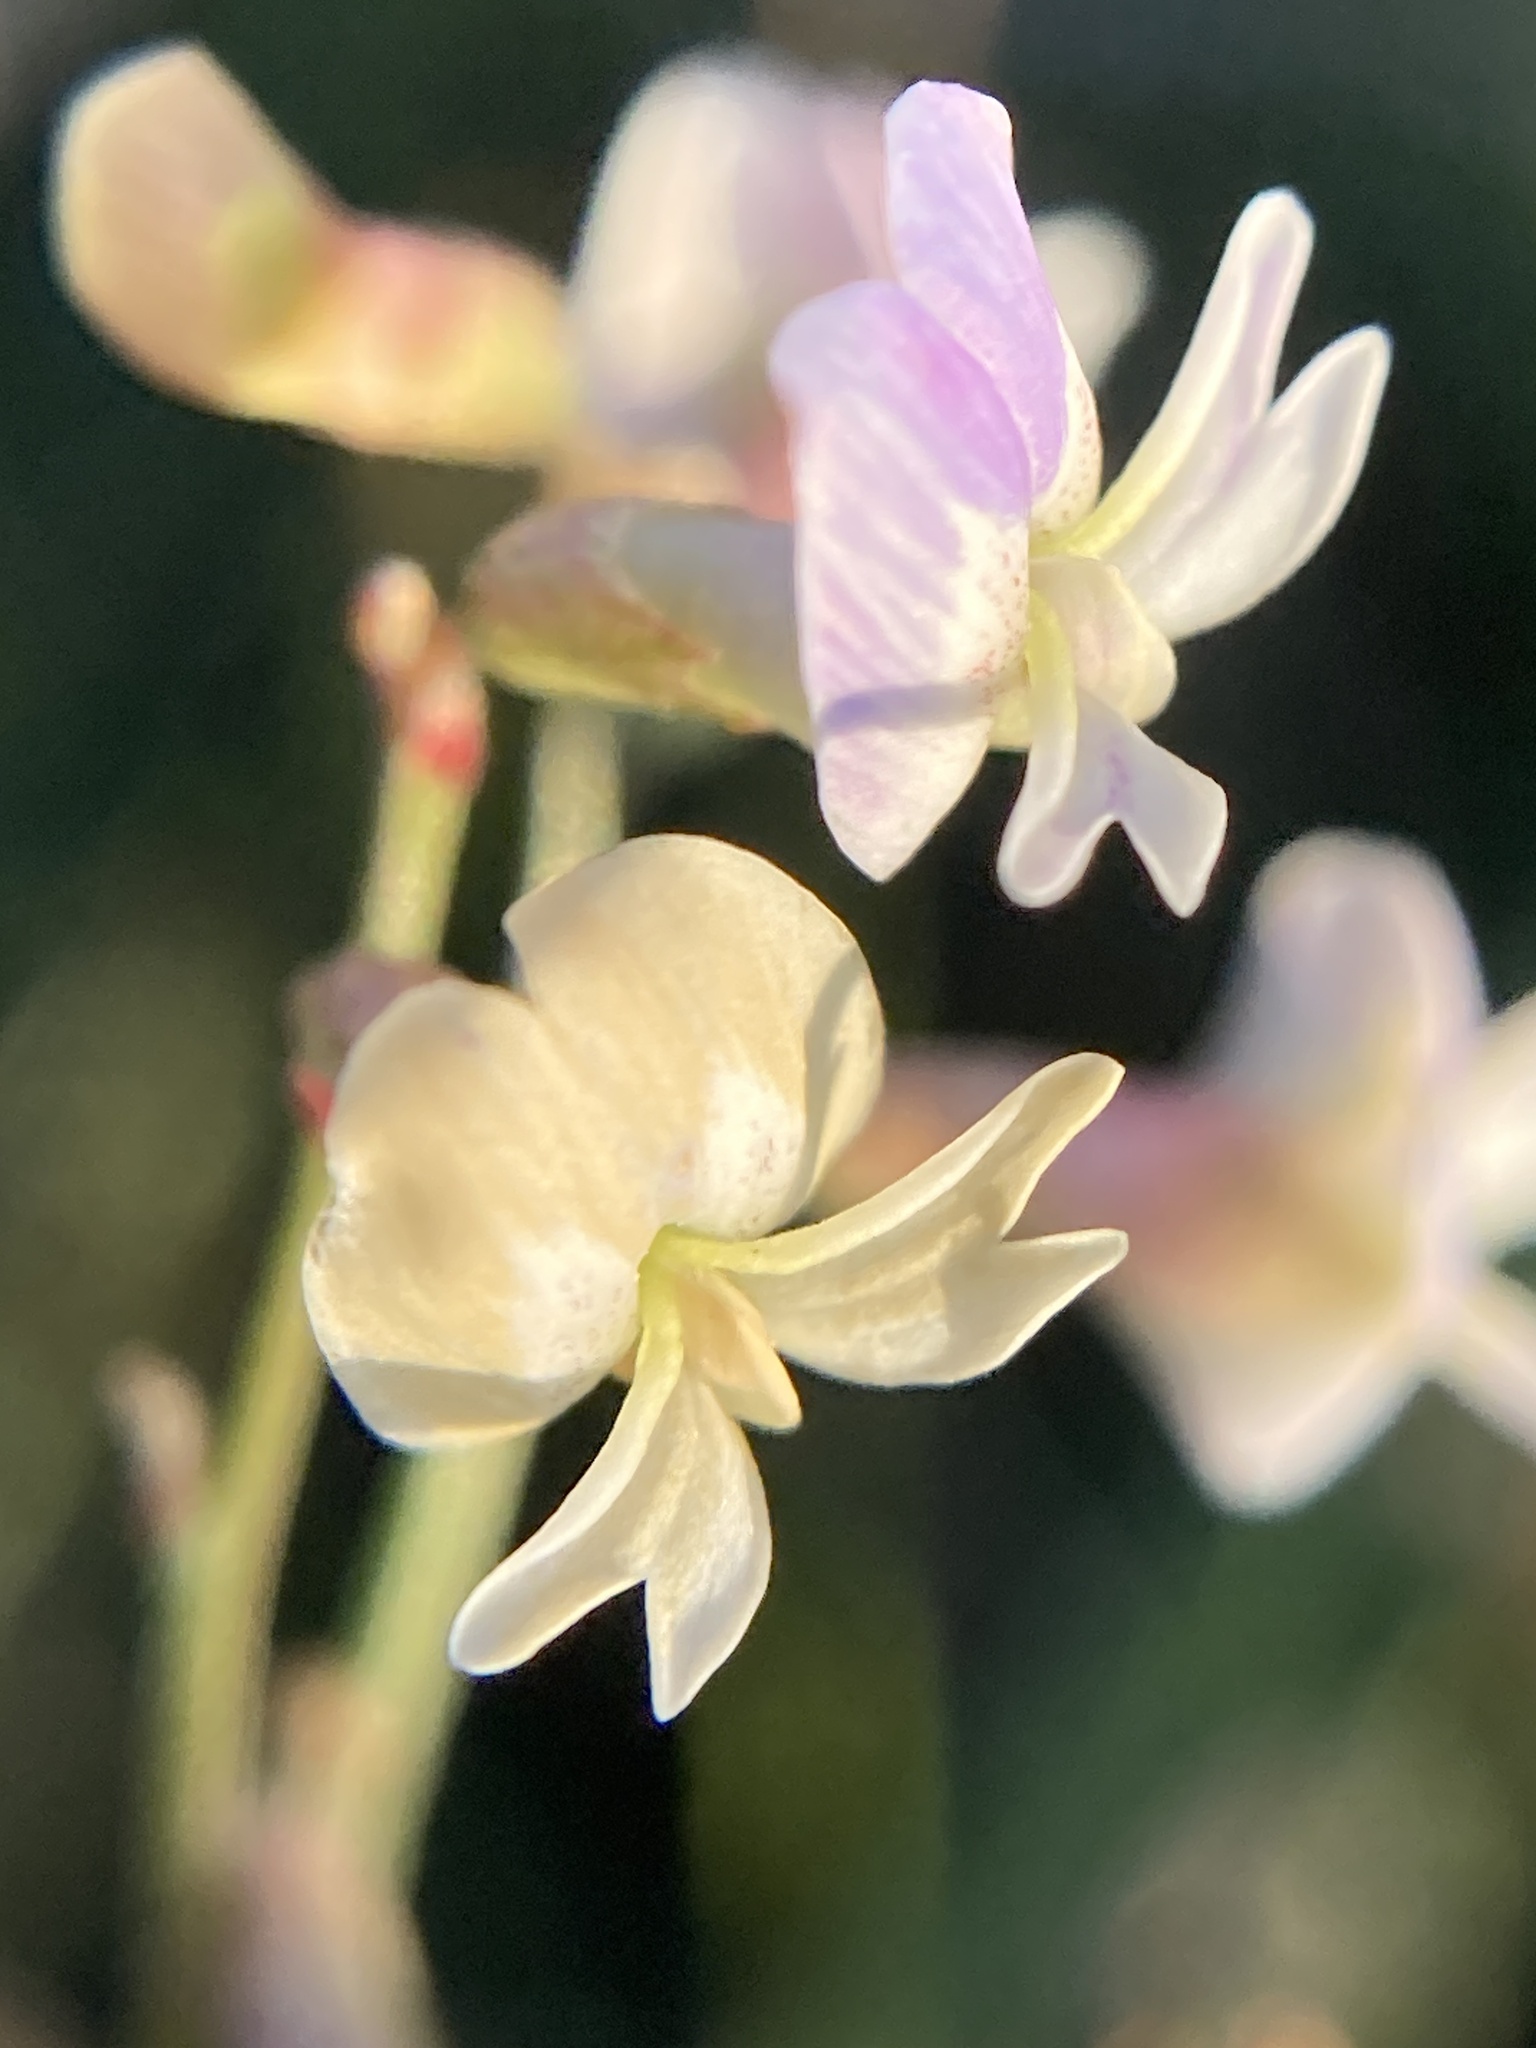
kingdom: Plantae
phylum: Tracheophyta
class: Magnoliopsida
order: Fabales
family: Fabaceae
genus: Astragalus
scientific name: Astragalus austriacus
